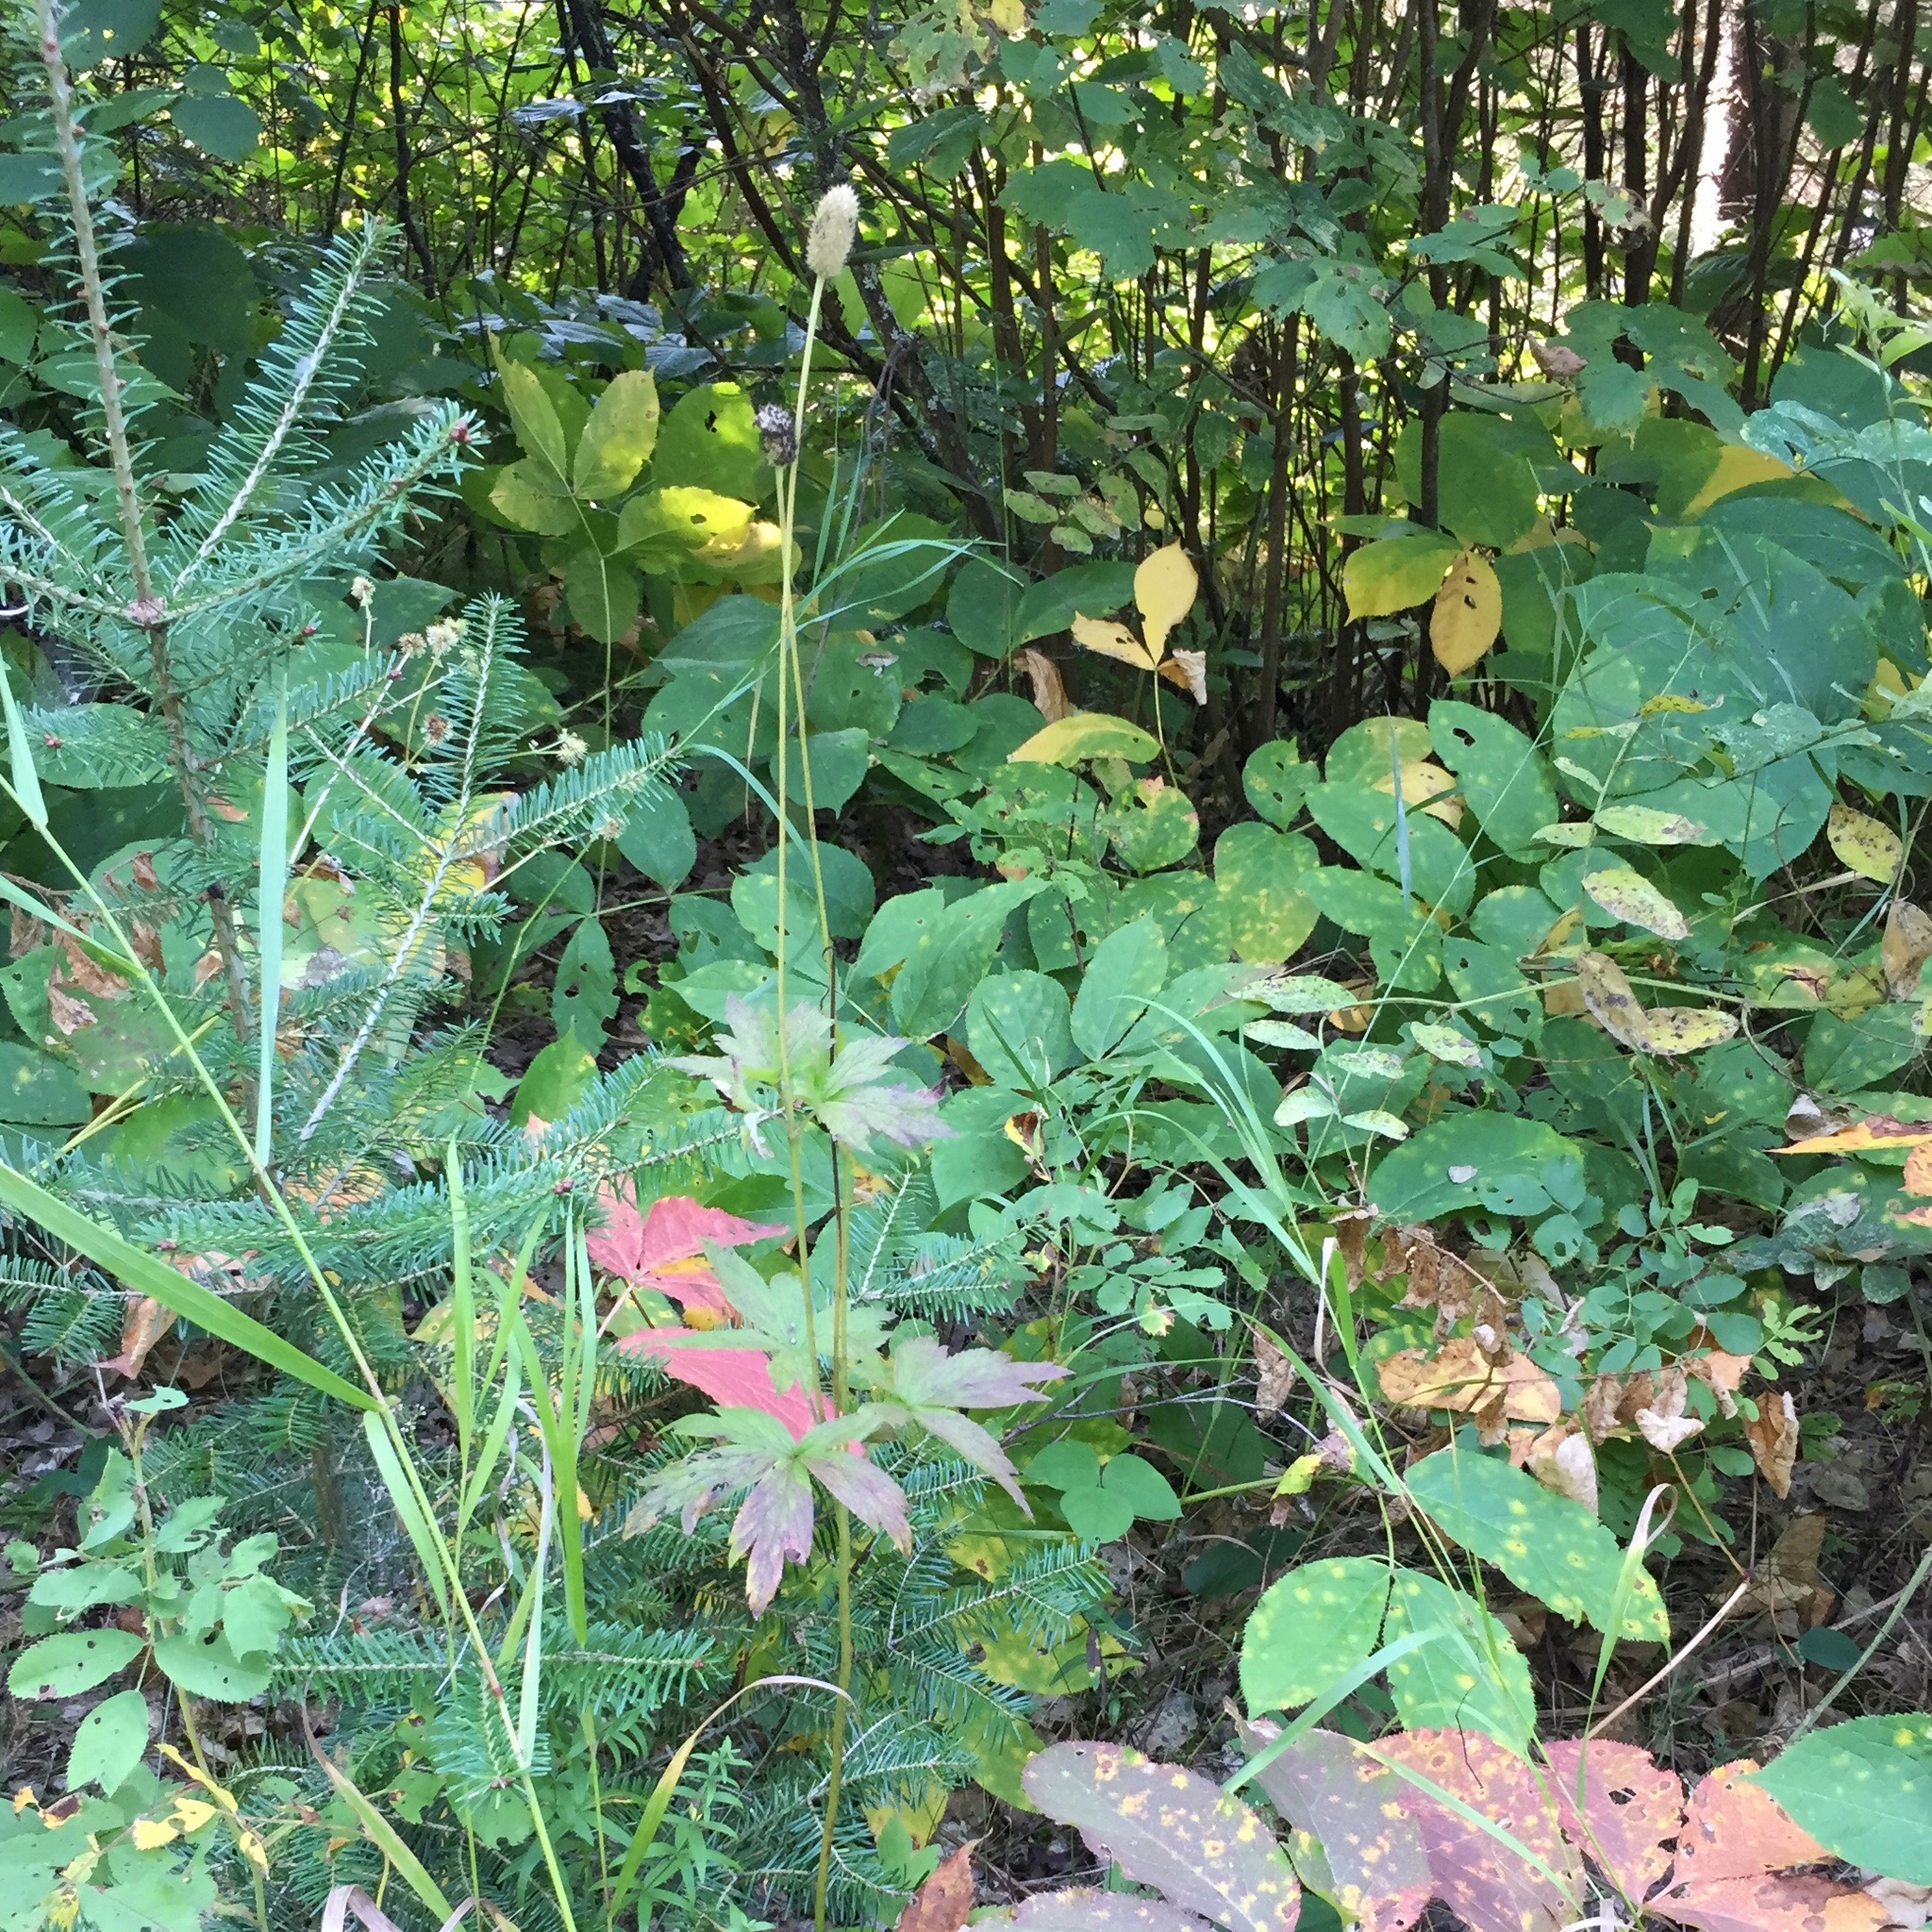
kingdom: Plantae
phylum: Tracheophyta
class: Magnoliopsida
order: Ranunculales
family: Ranunculaceae
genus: Anemone
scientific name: Anemone virginiana
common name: Tall anemone
